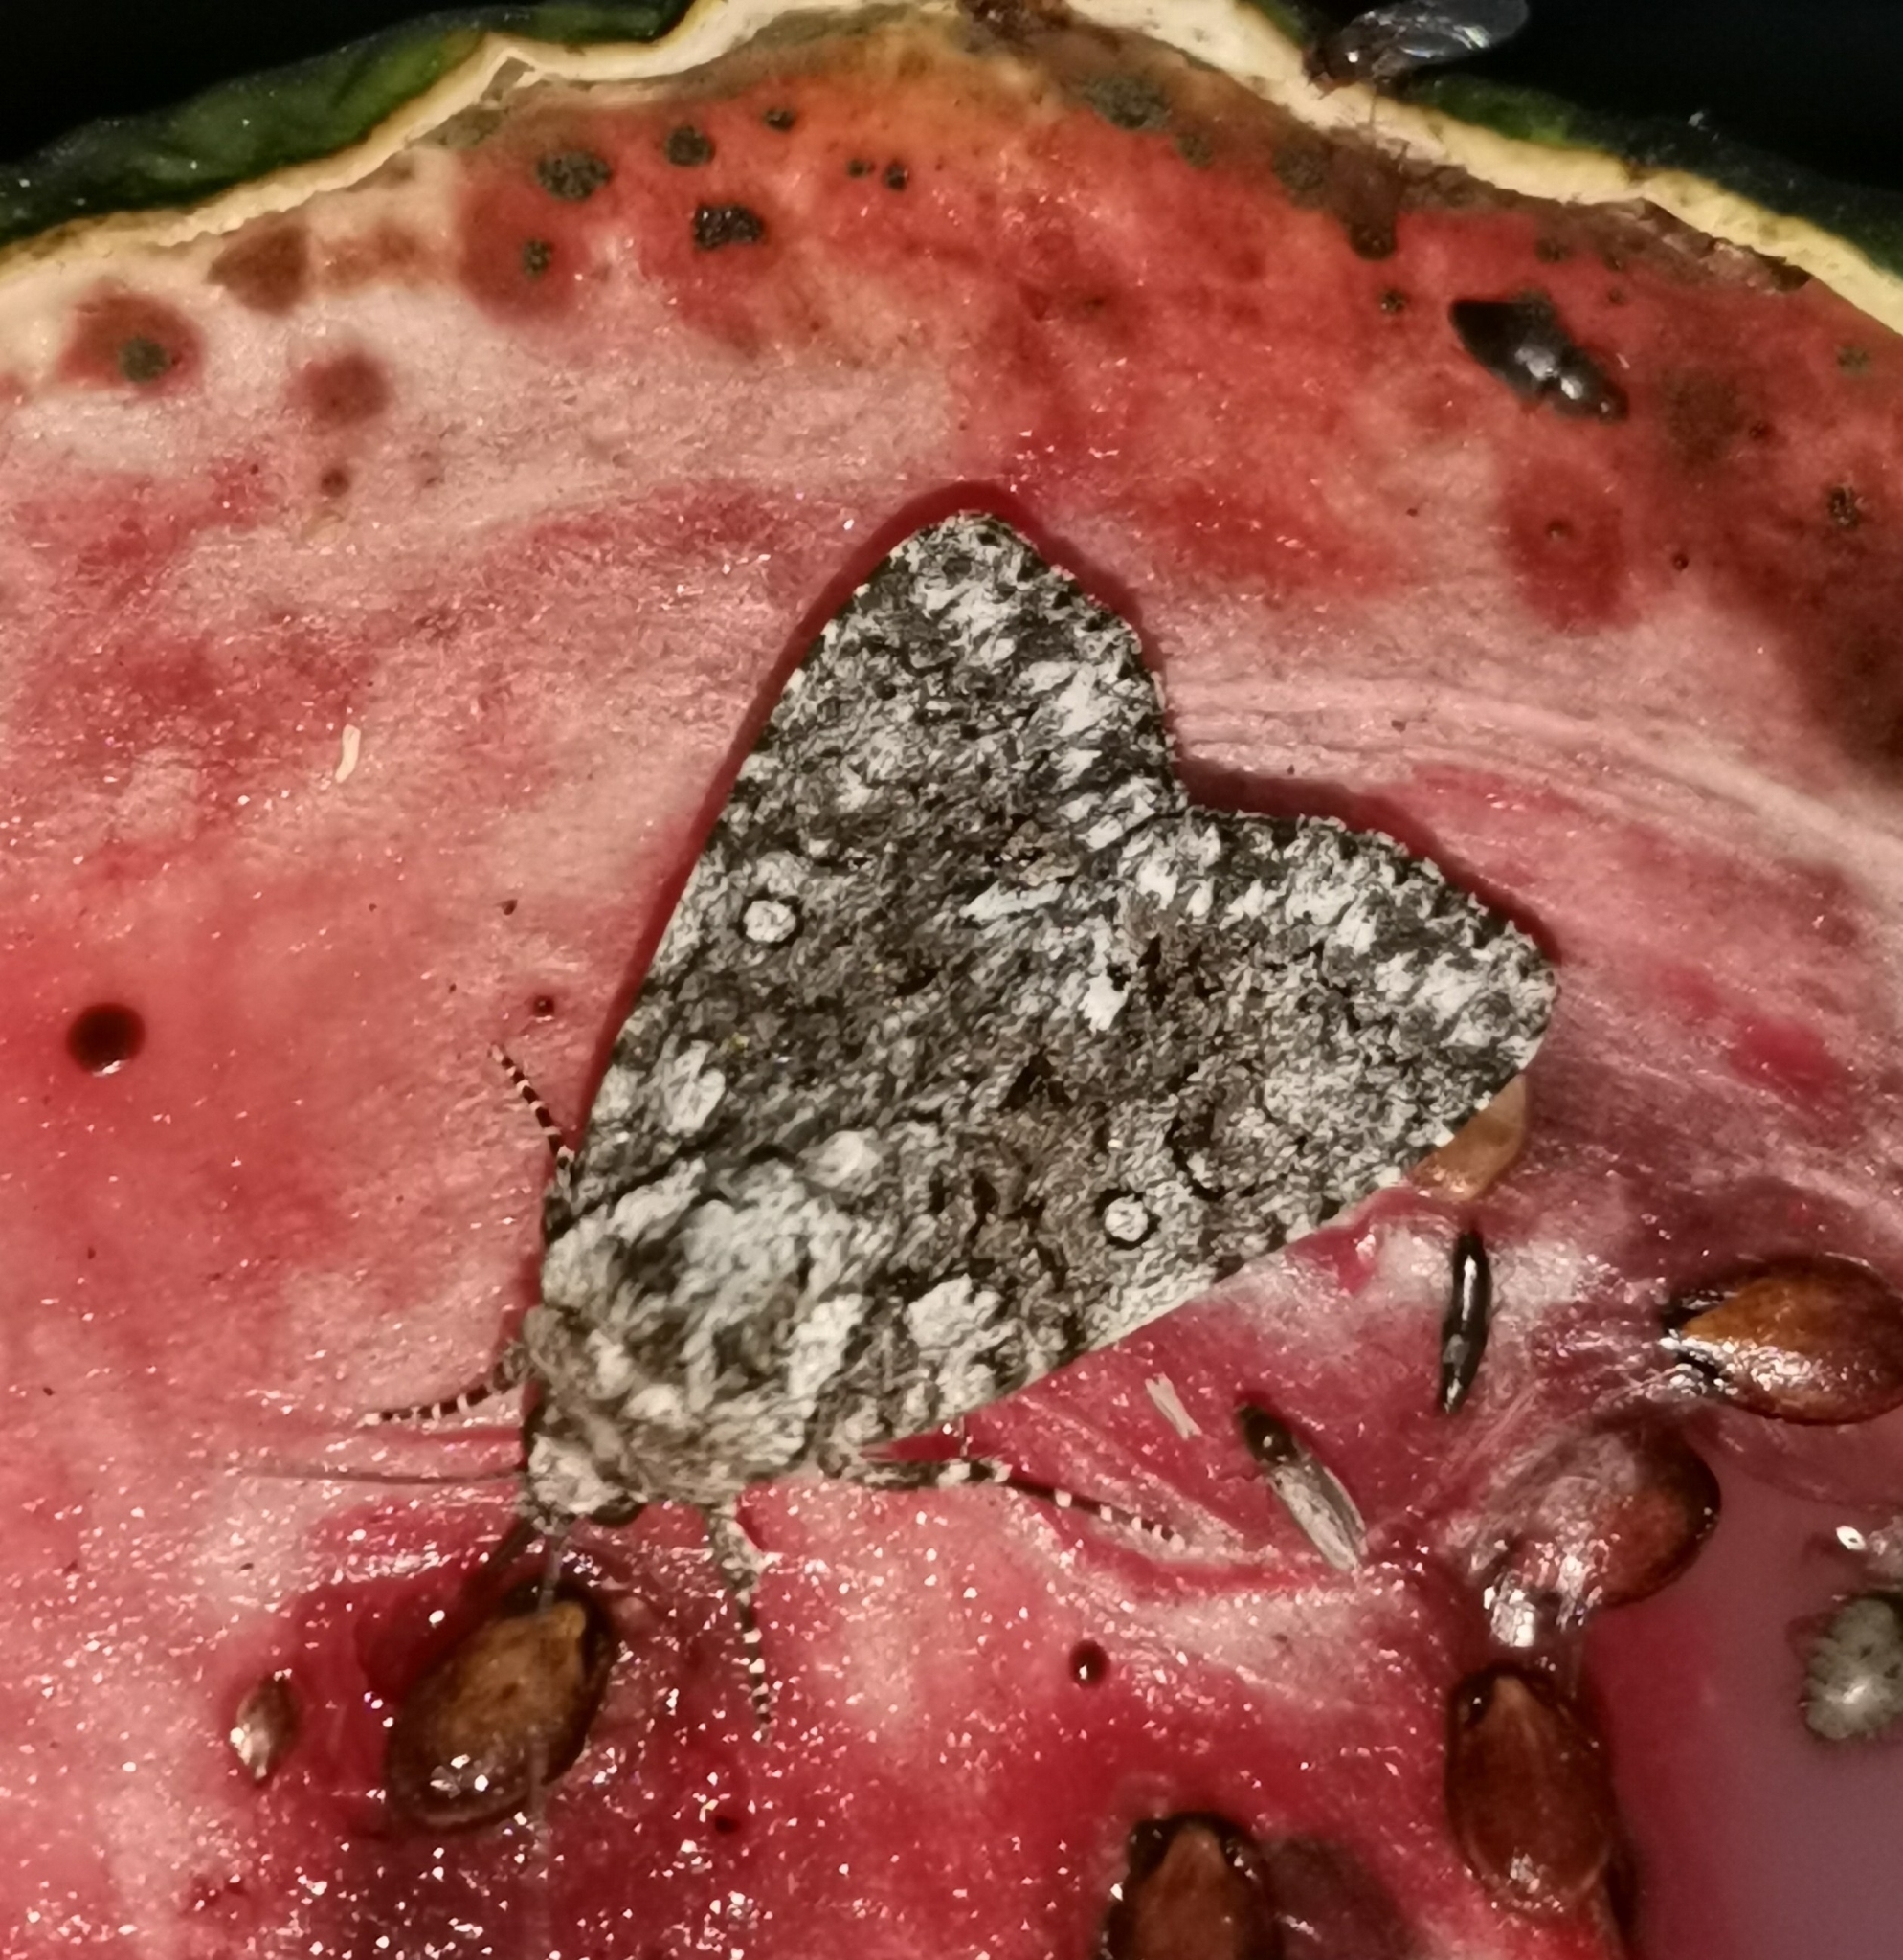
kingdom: Animalia
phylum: Arthropoda
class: Insecta
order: Lepidoptera
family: Noctuidae
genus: Acronicta
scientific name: Acronicta rumicis
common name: Knot grass
